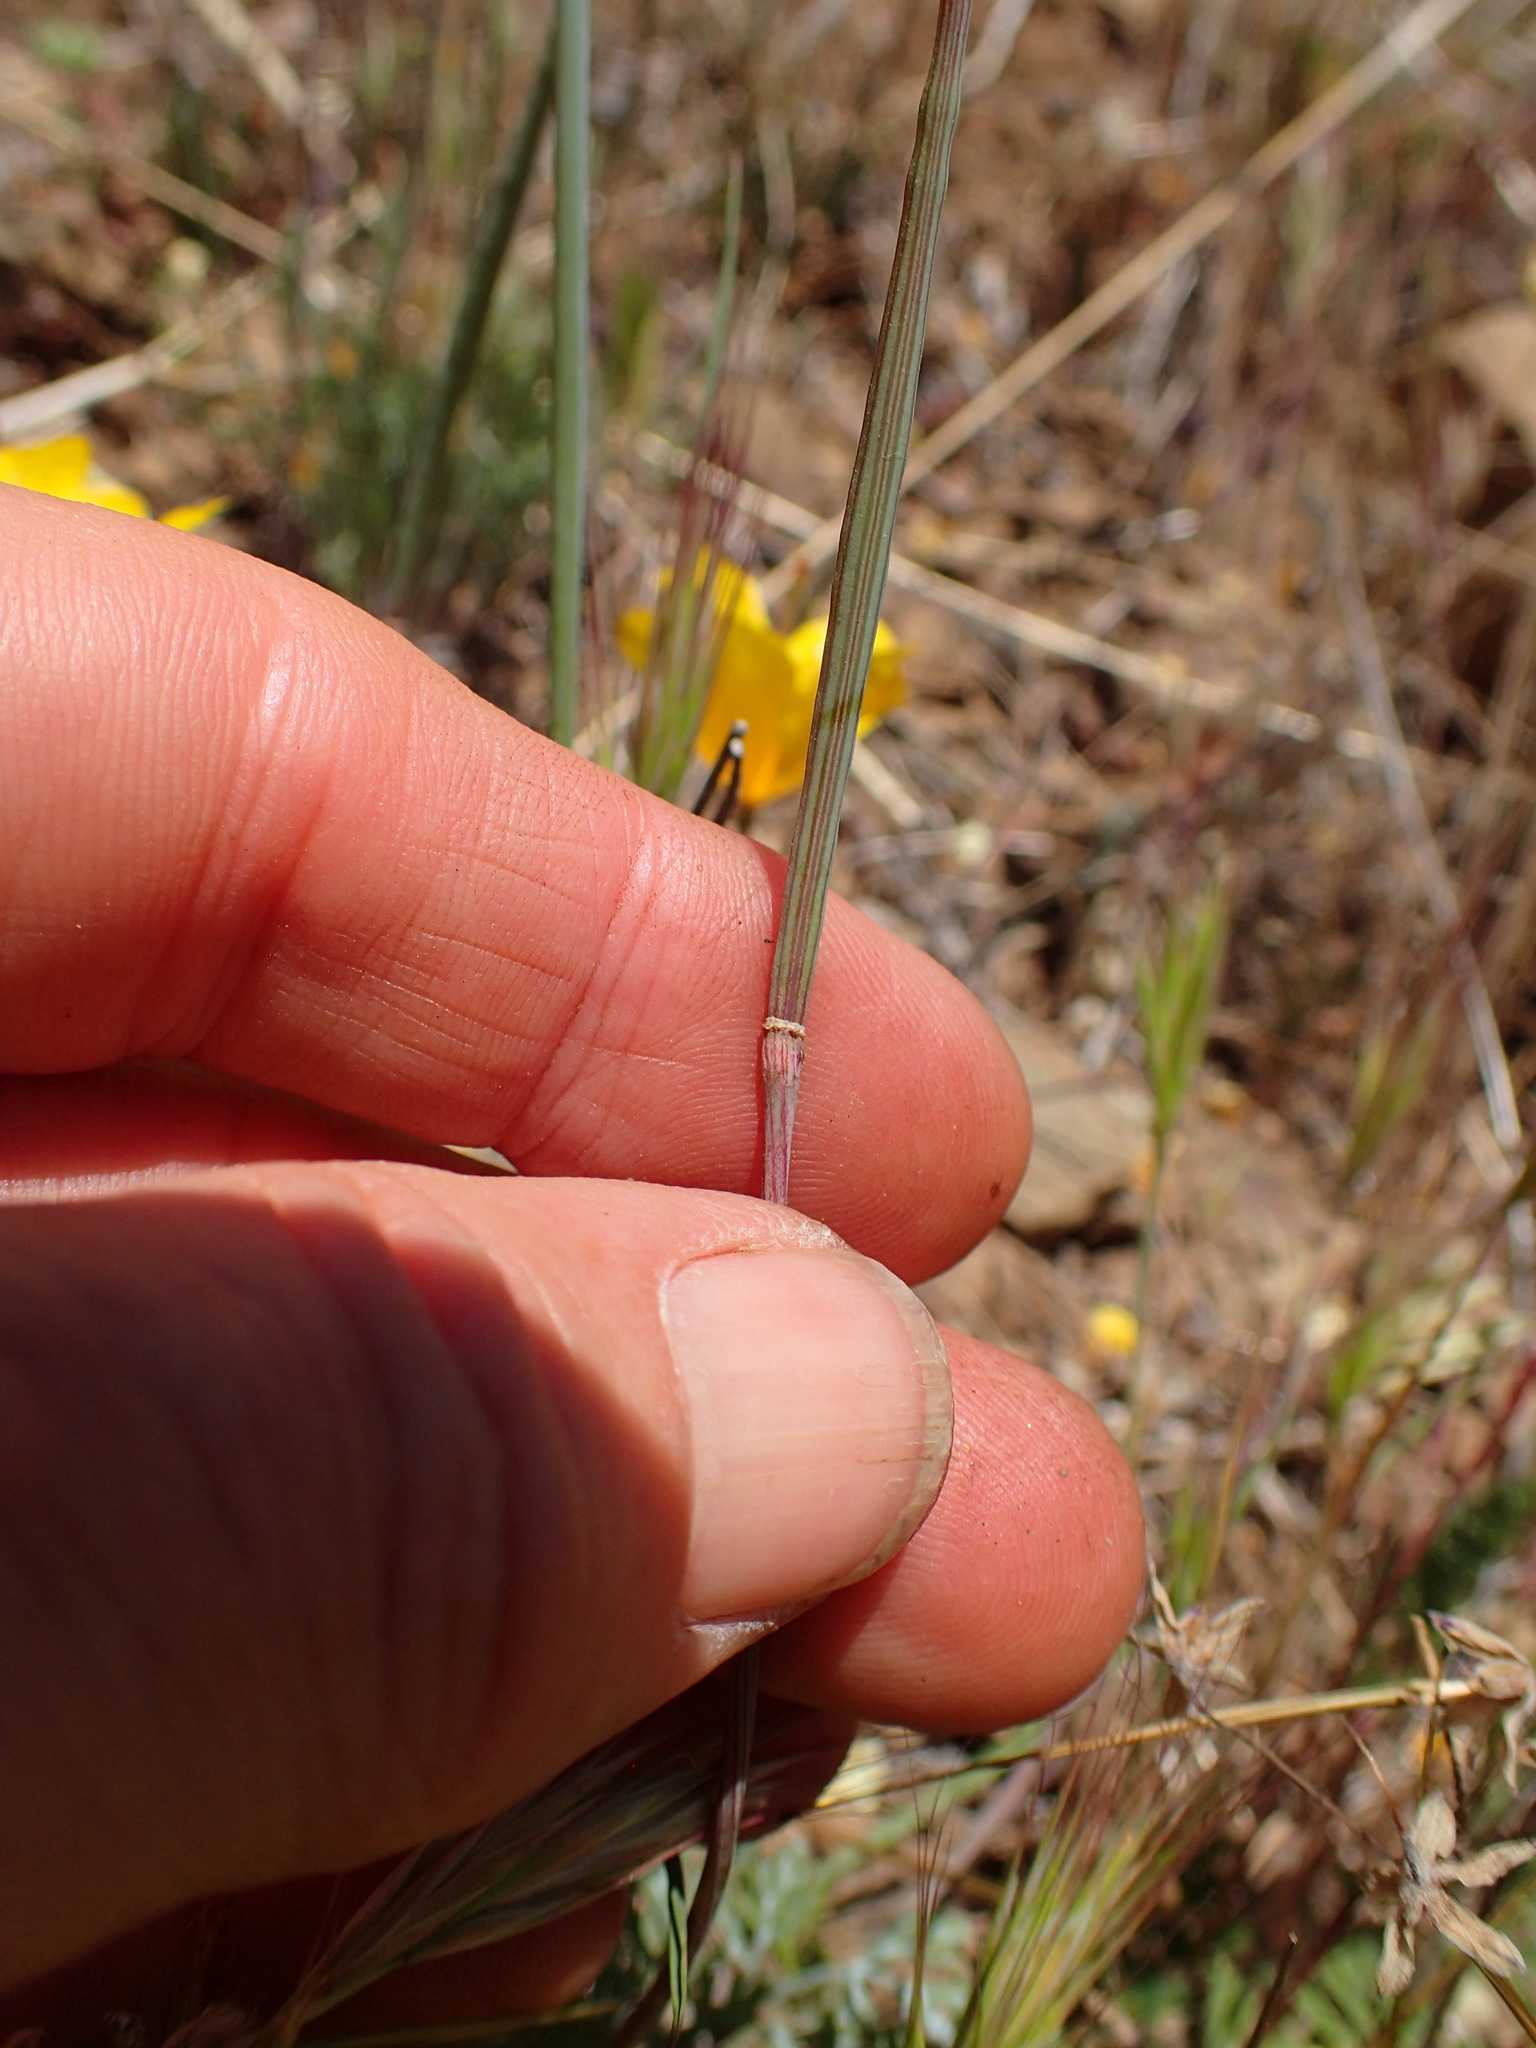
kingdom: Plantae
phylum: Tracheophyta
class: Magnoliopsida
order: Ranunculales
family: Papaveraceae
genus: Eschscholzia
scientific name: Eschscholzia caespitosa
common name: Tufted california-poppy
